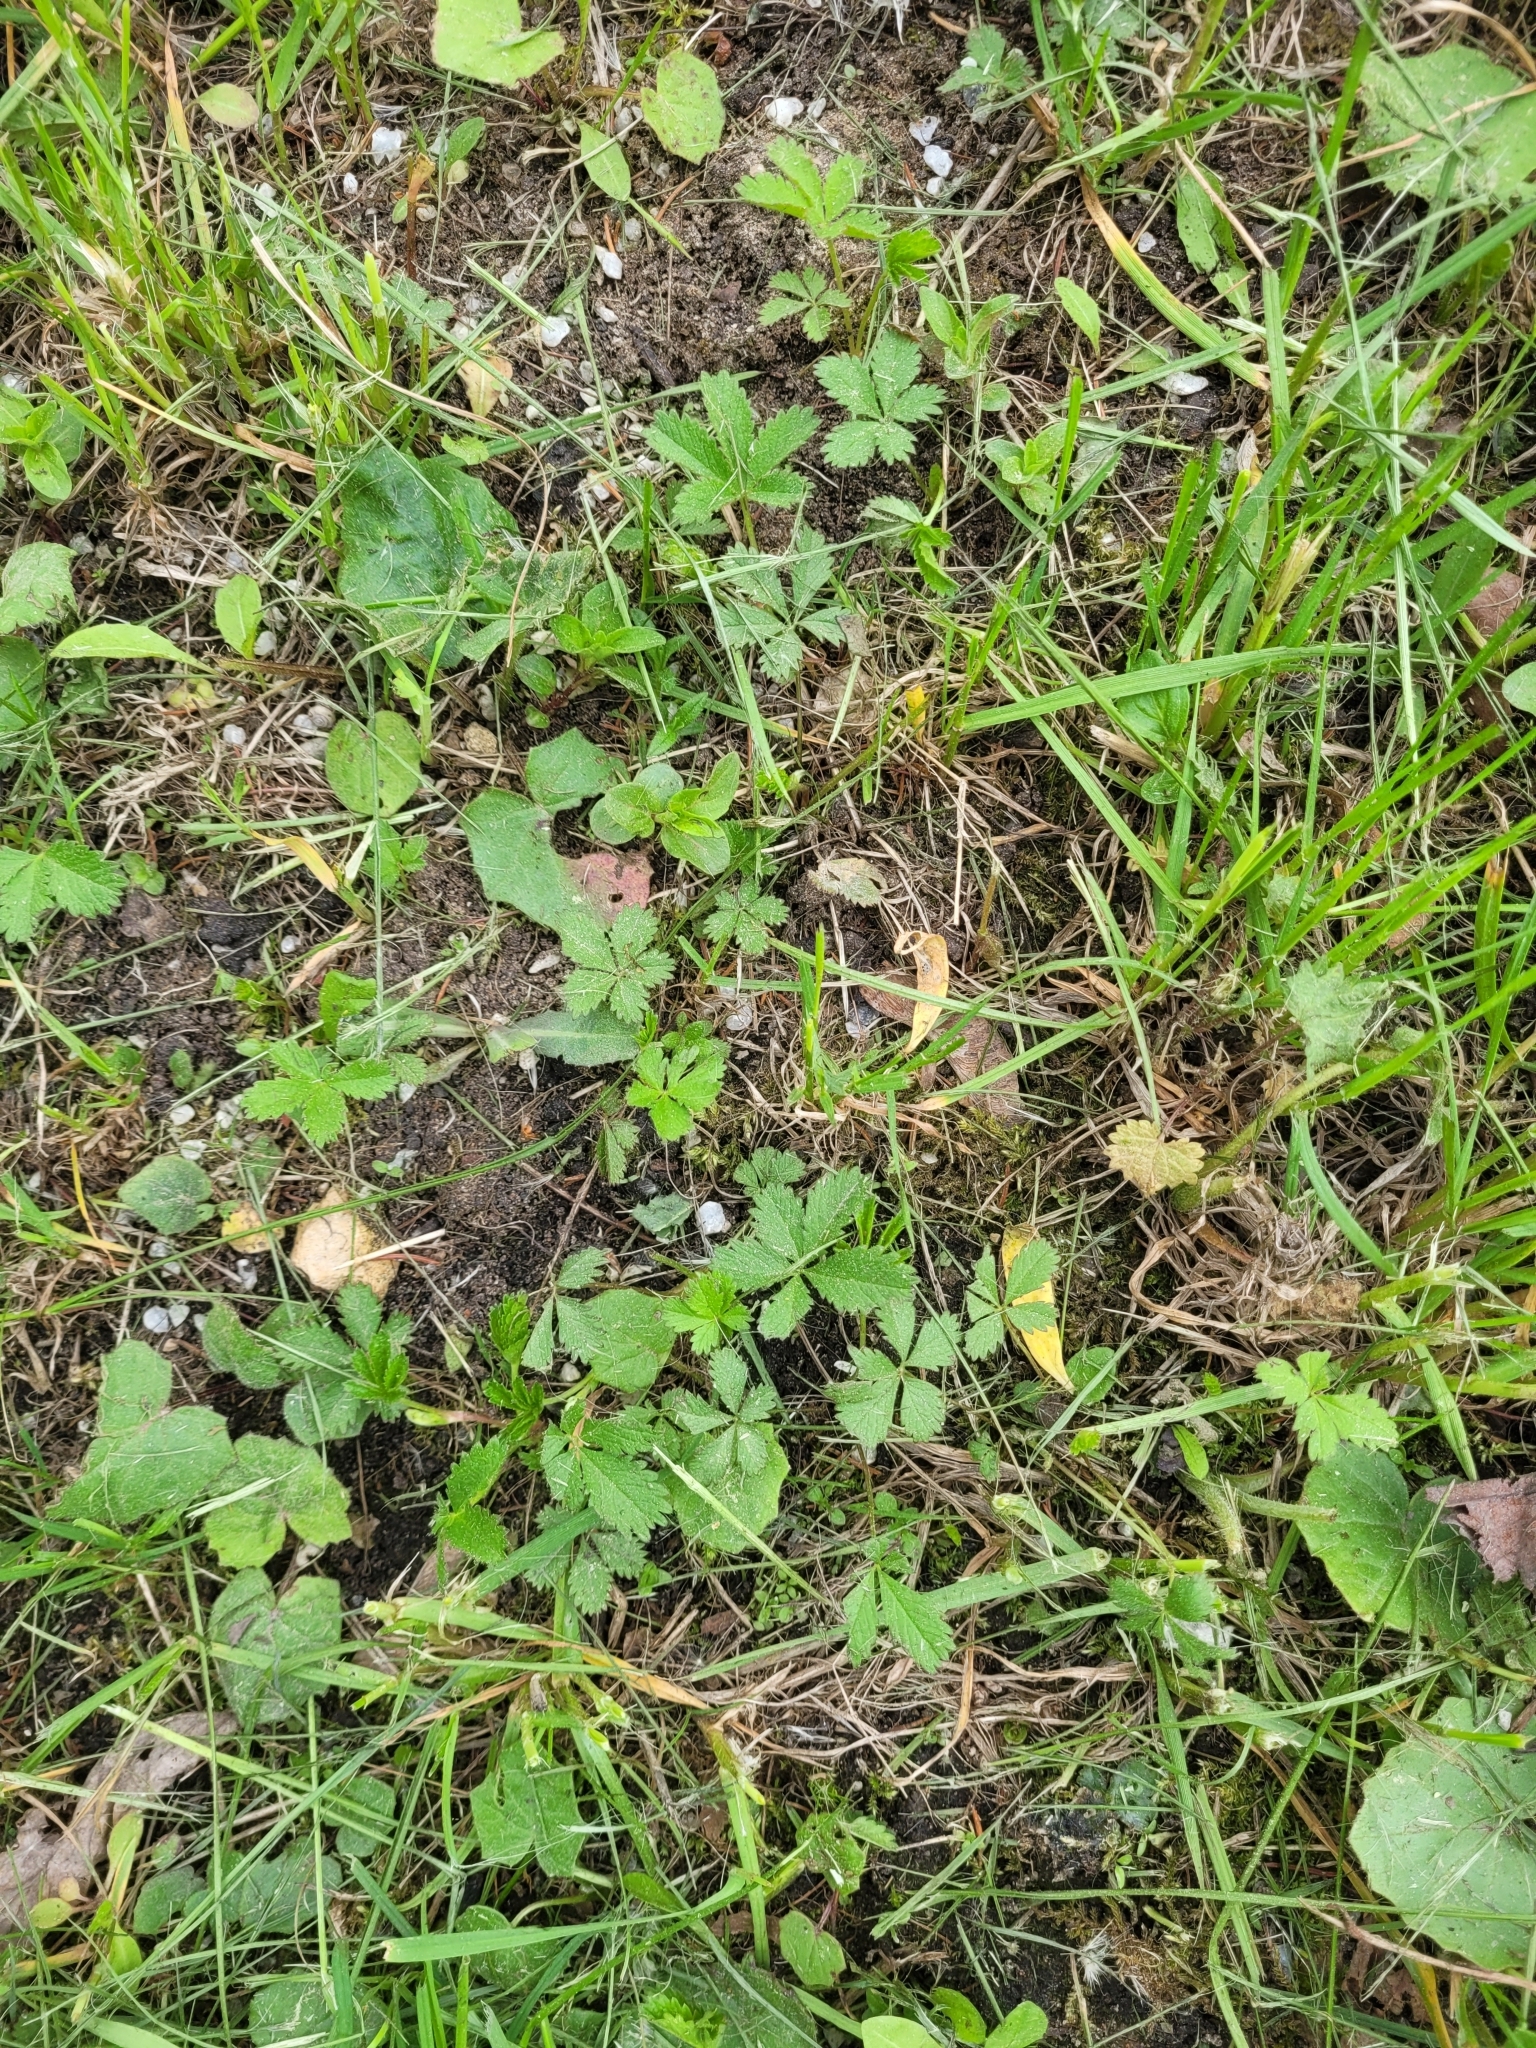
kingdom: Plantae
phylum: Tracheophyta
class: Magnoliopsida
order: Rosales
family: Rosaceae
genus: Potentilla
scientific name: Potentilla reptans
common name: Creeping cinquefoil
